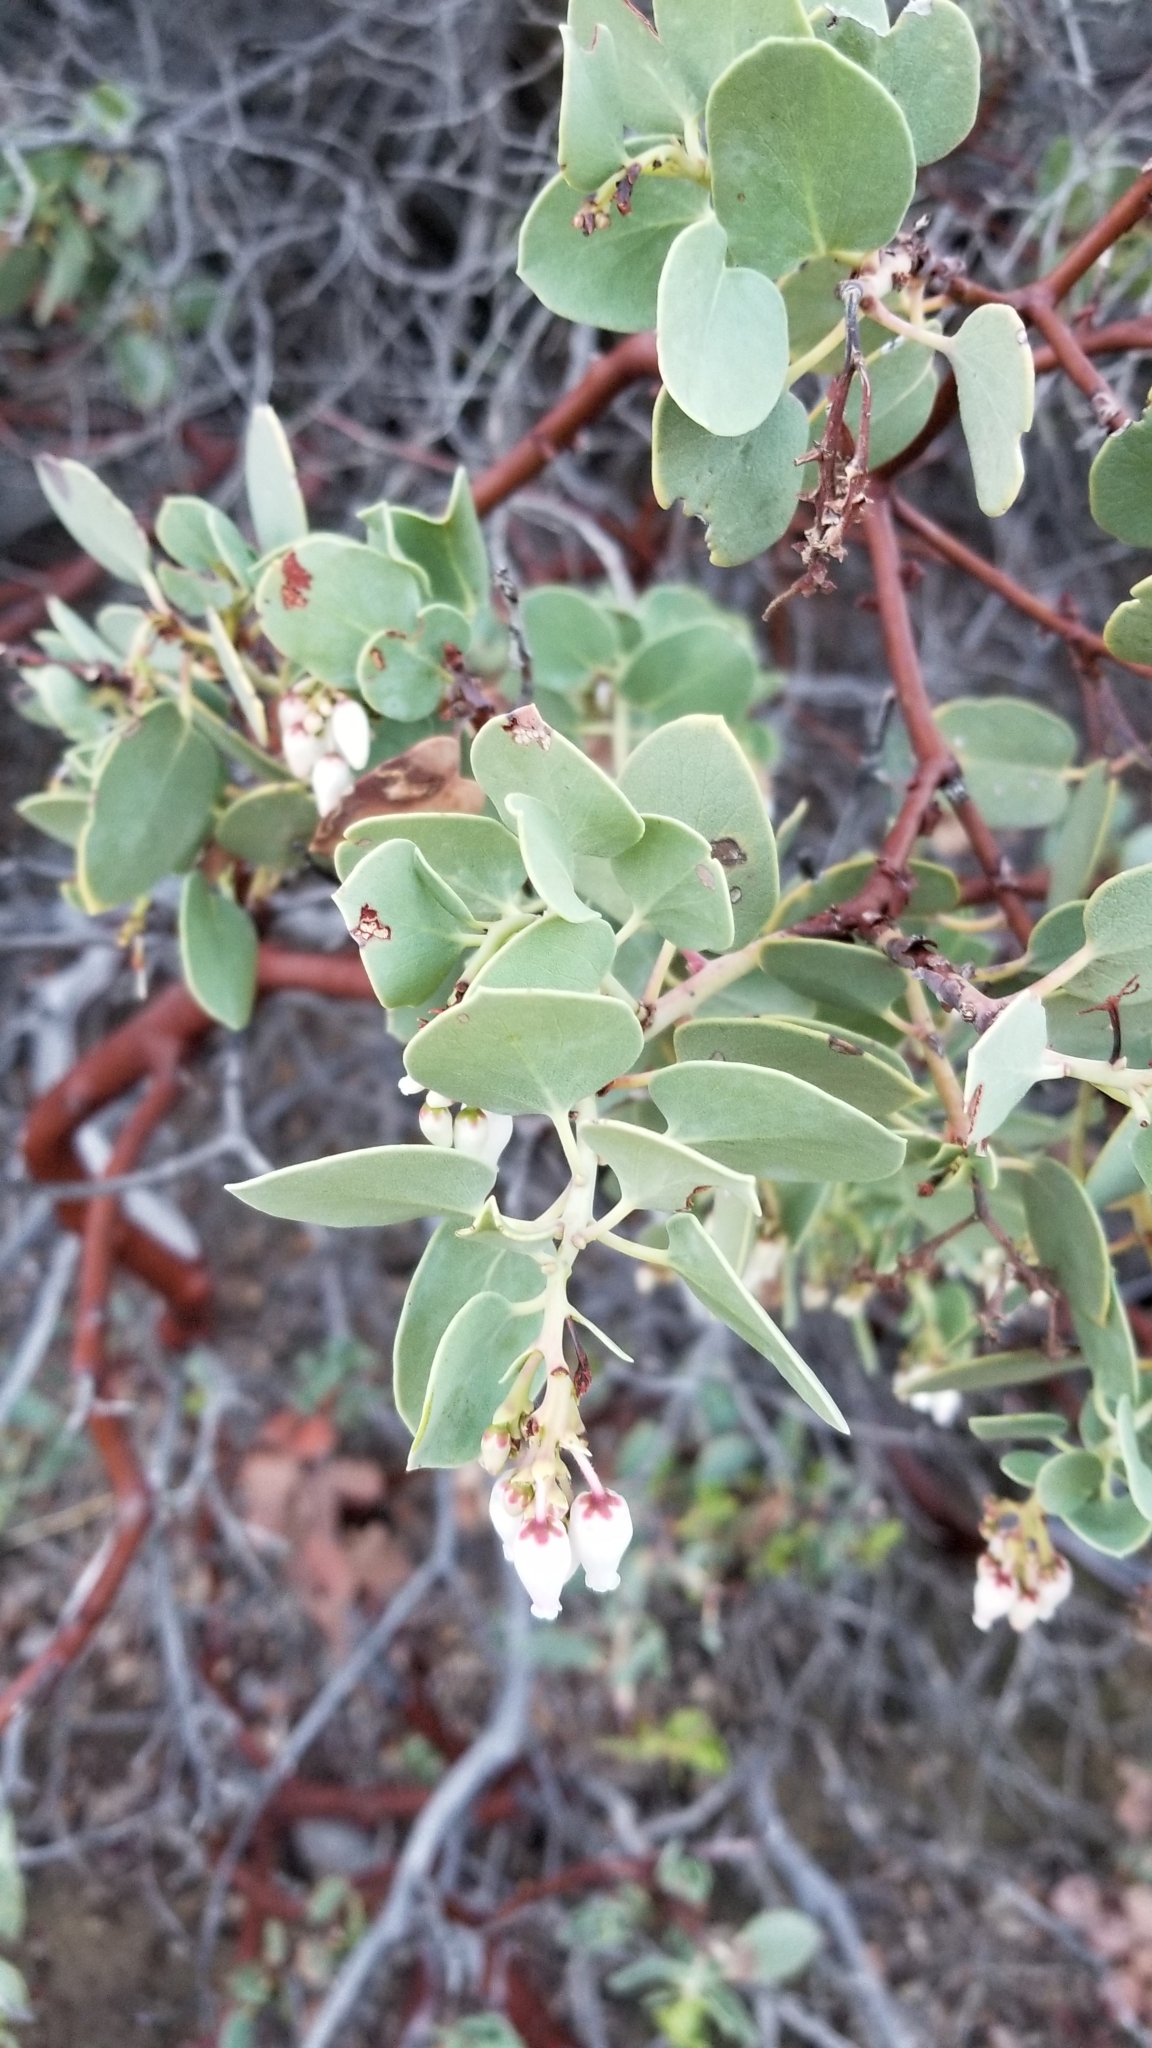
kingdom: Plantae
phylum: Tracheophyta
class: Magnoliopsida
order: Ericales
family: Ericaceae
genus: Arctostaphylos
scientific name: Arctostaphylos glauca
